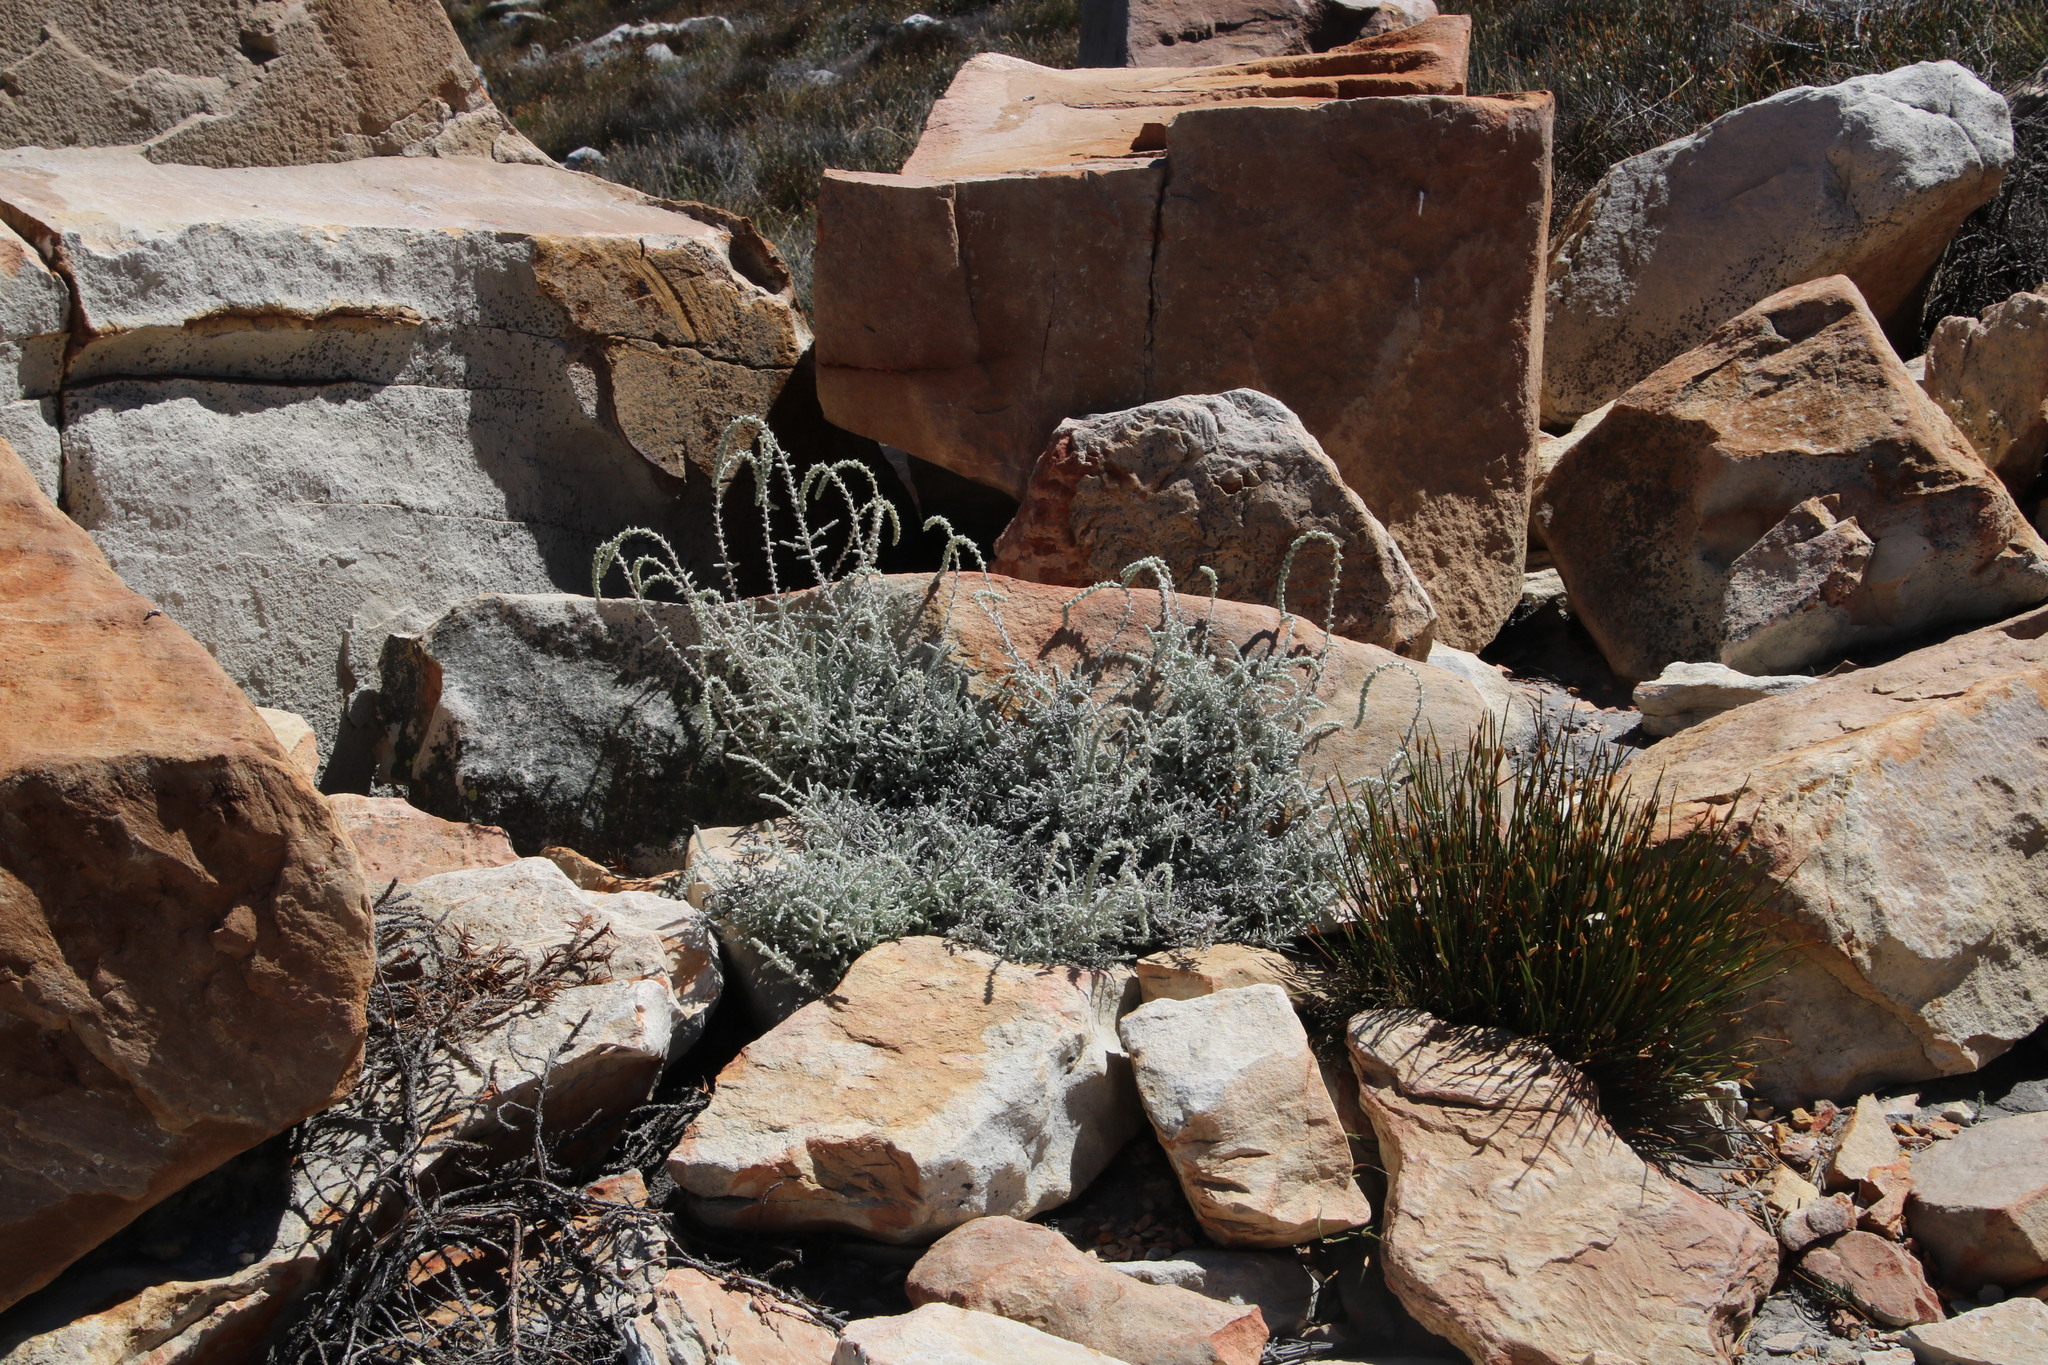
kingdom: Plantae
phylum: Tracheophyta
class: Magnoliopsida
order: Asterales
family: Asteraceae
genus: Seriphium
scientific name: Seriphium plumosum
